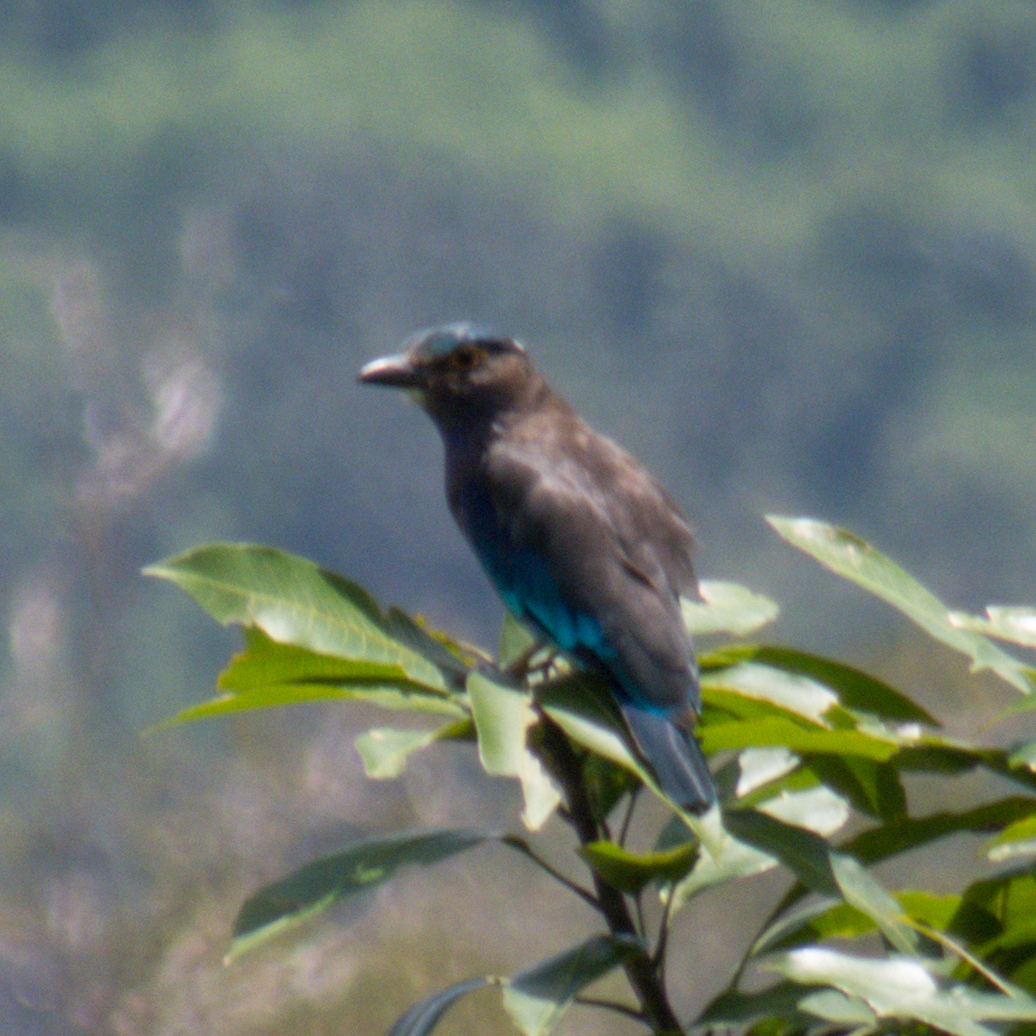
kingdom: Animalia
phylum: Chordata
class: Aves
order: Coraciiformes
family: Coraciidae
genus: Coracias
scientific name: Coracias affinis
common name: Indochinese roller
